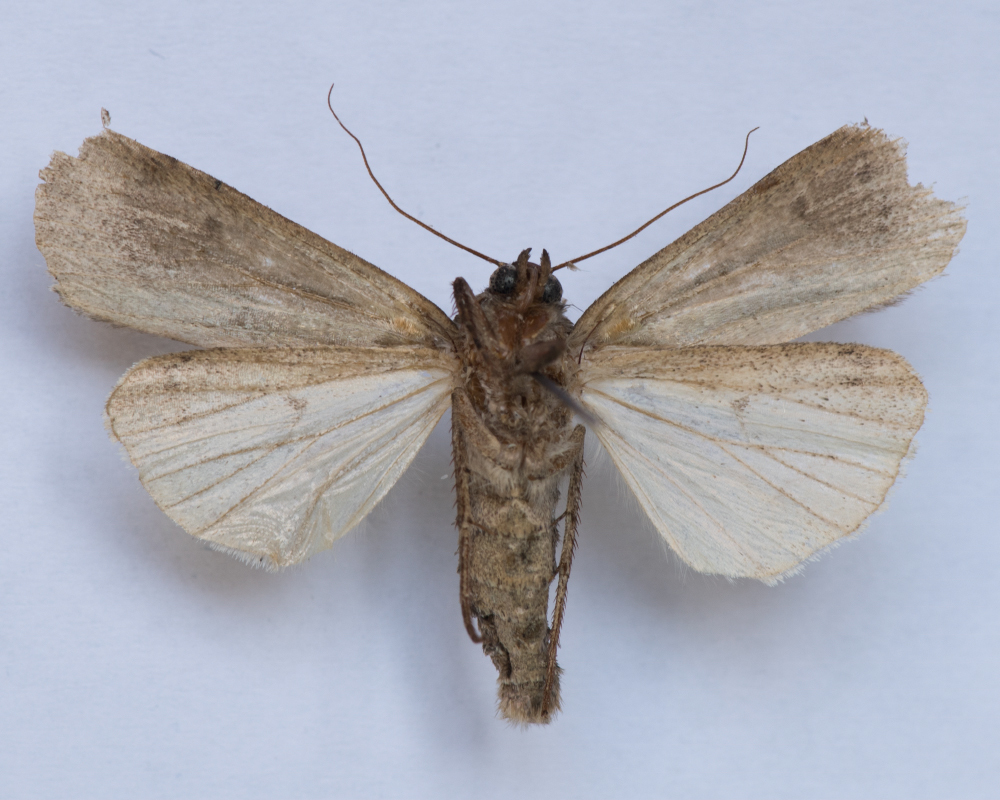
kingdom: Animalia
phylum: Arthropoda
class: Insecta
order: Lepidoptera
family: Noctuidae
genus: Spaelotis
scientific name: Spaelotis ravida
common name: Stout dart
